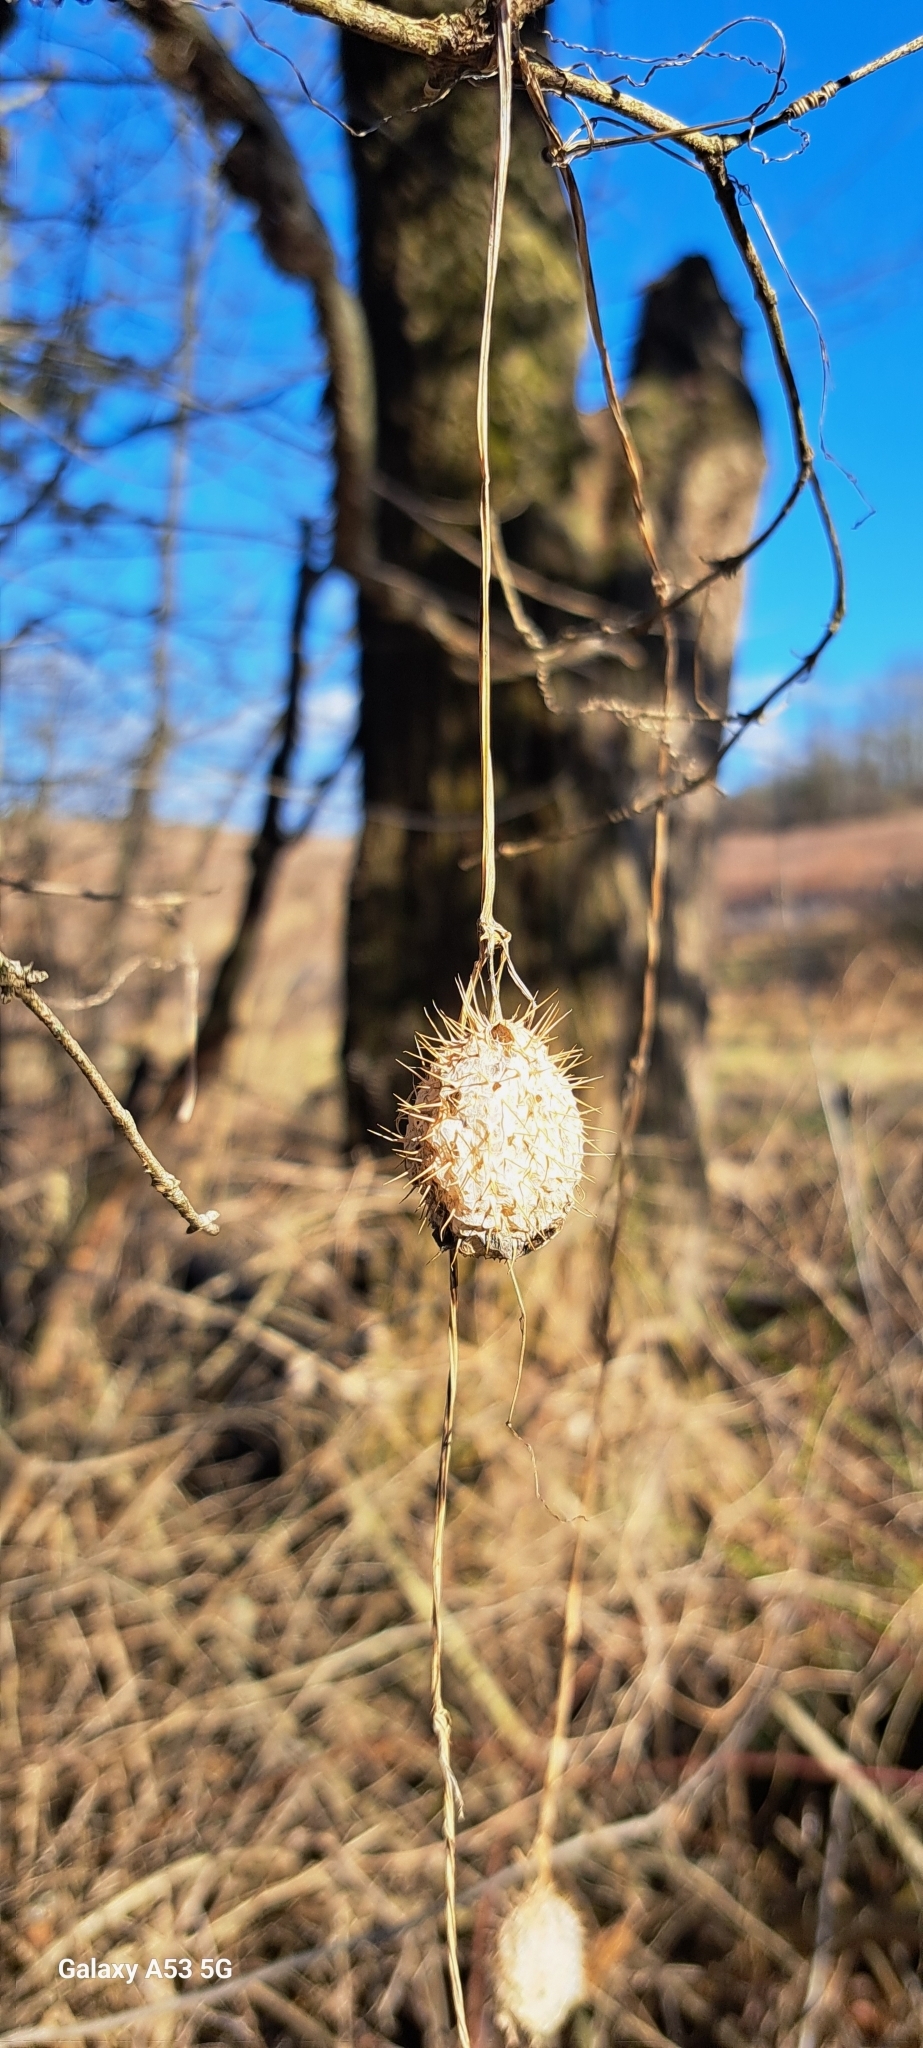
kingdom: Plantae
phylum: Tracheophyta
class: Magnoliopsida
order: Cucurbitales
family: Cucurbitaceae
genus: Echinocystis
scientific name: Echinocystis lobata
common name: Wild cucumber
